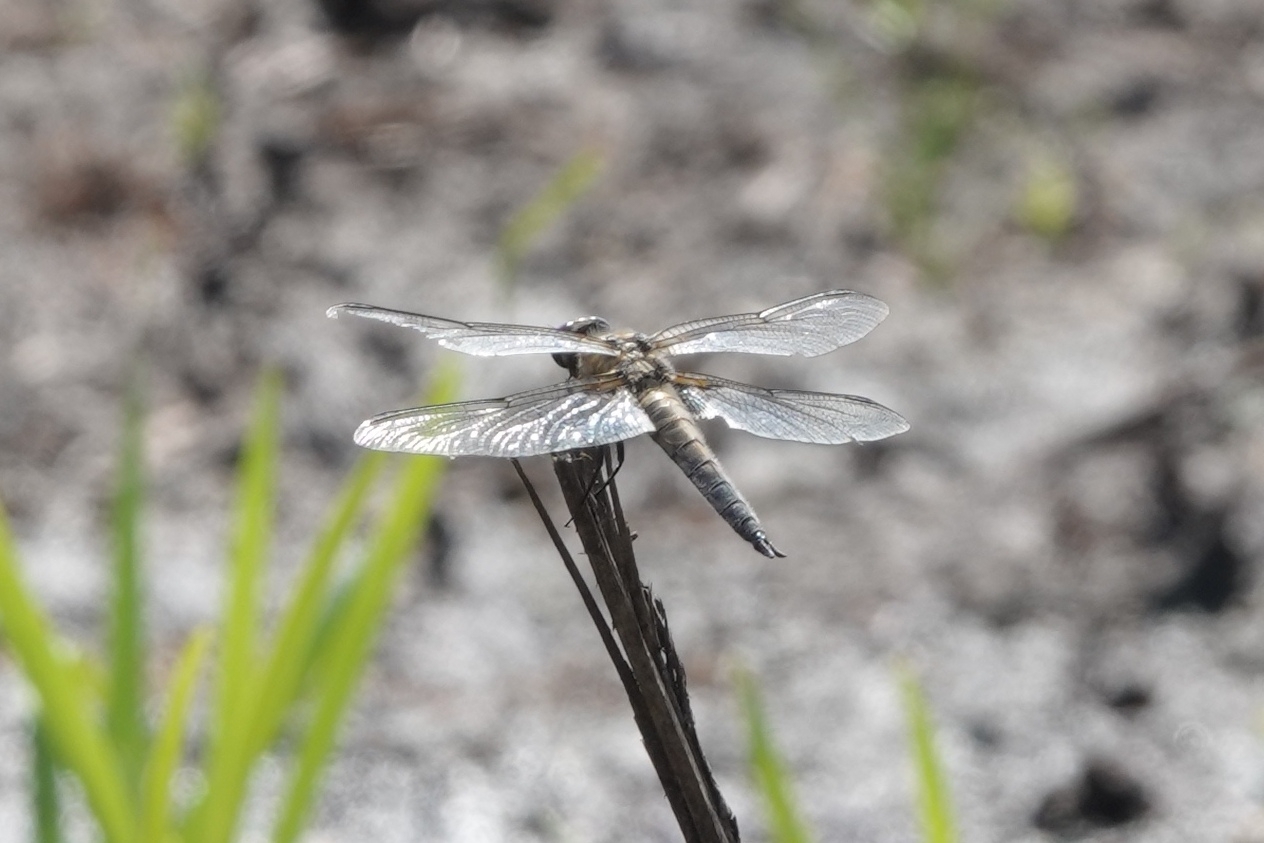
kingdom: Animalia
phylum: Arthropoda
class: Insecta
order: Odonata
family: Libellulidae
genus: Libellula
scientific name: Libellula quadrimaculata
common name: Four-spotted chaser
